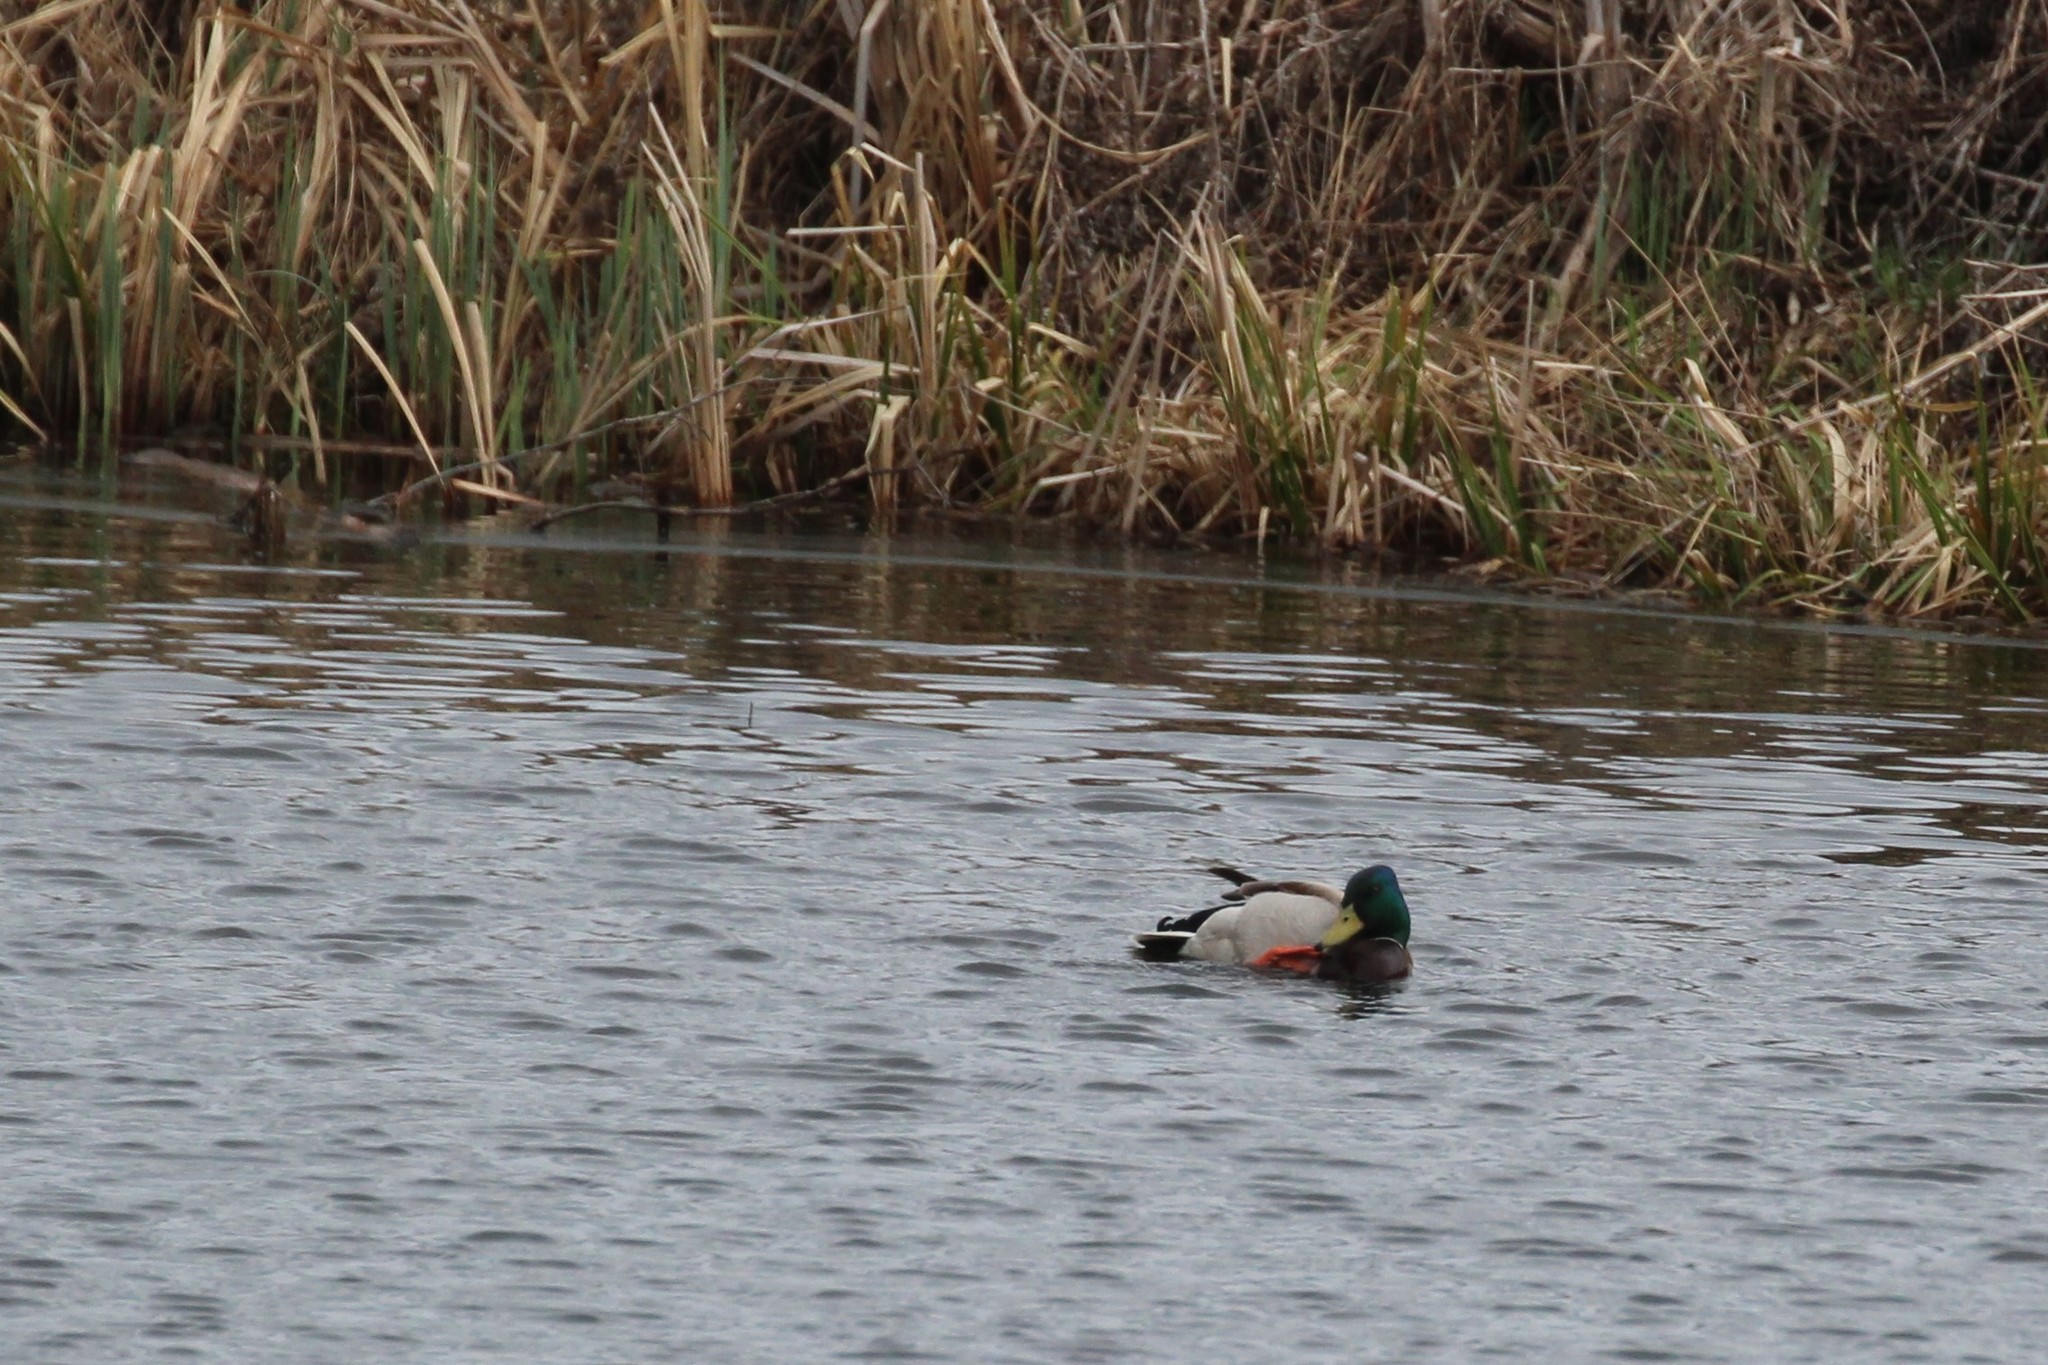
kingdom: Animalia
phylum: Chordata
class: Aves
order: Anseriformes
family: Anatidae
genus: Anas
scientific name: Anas platyrhynchos
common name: Mallard
